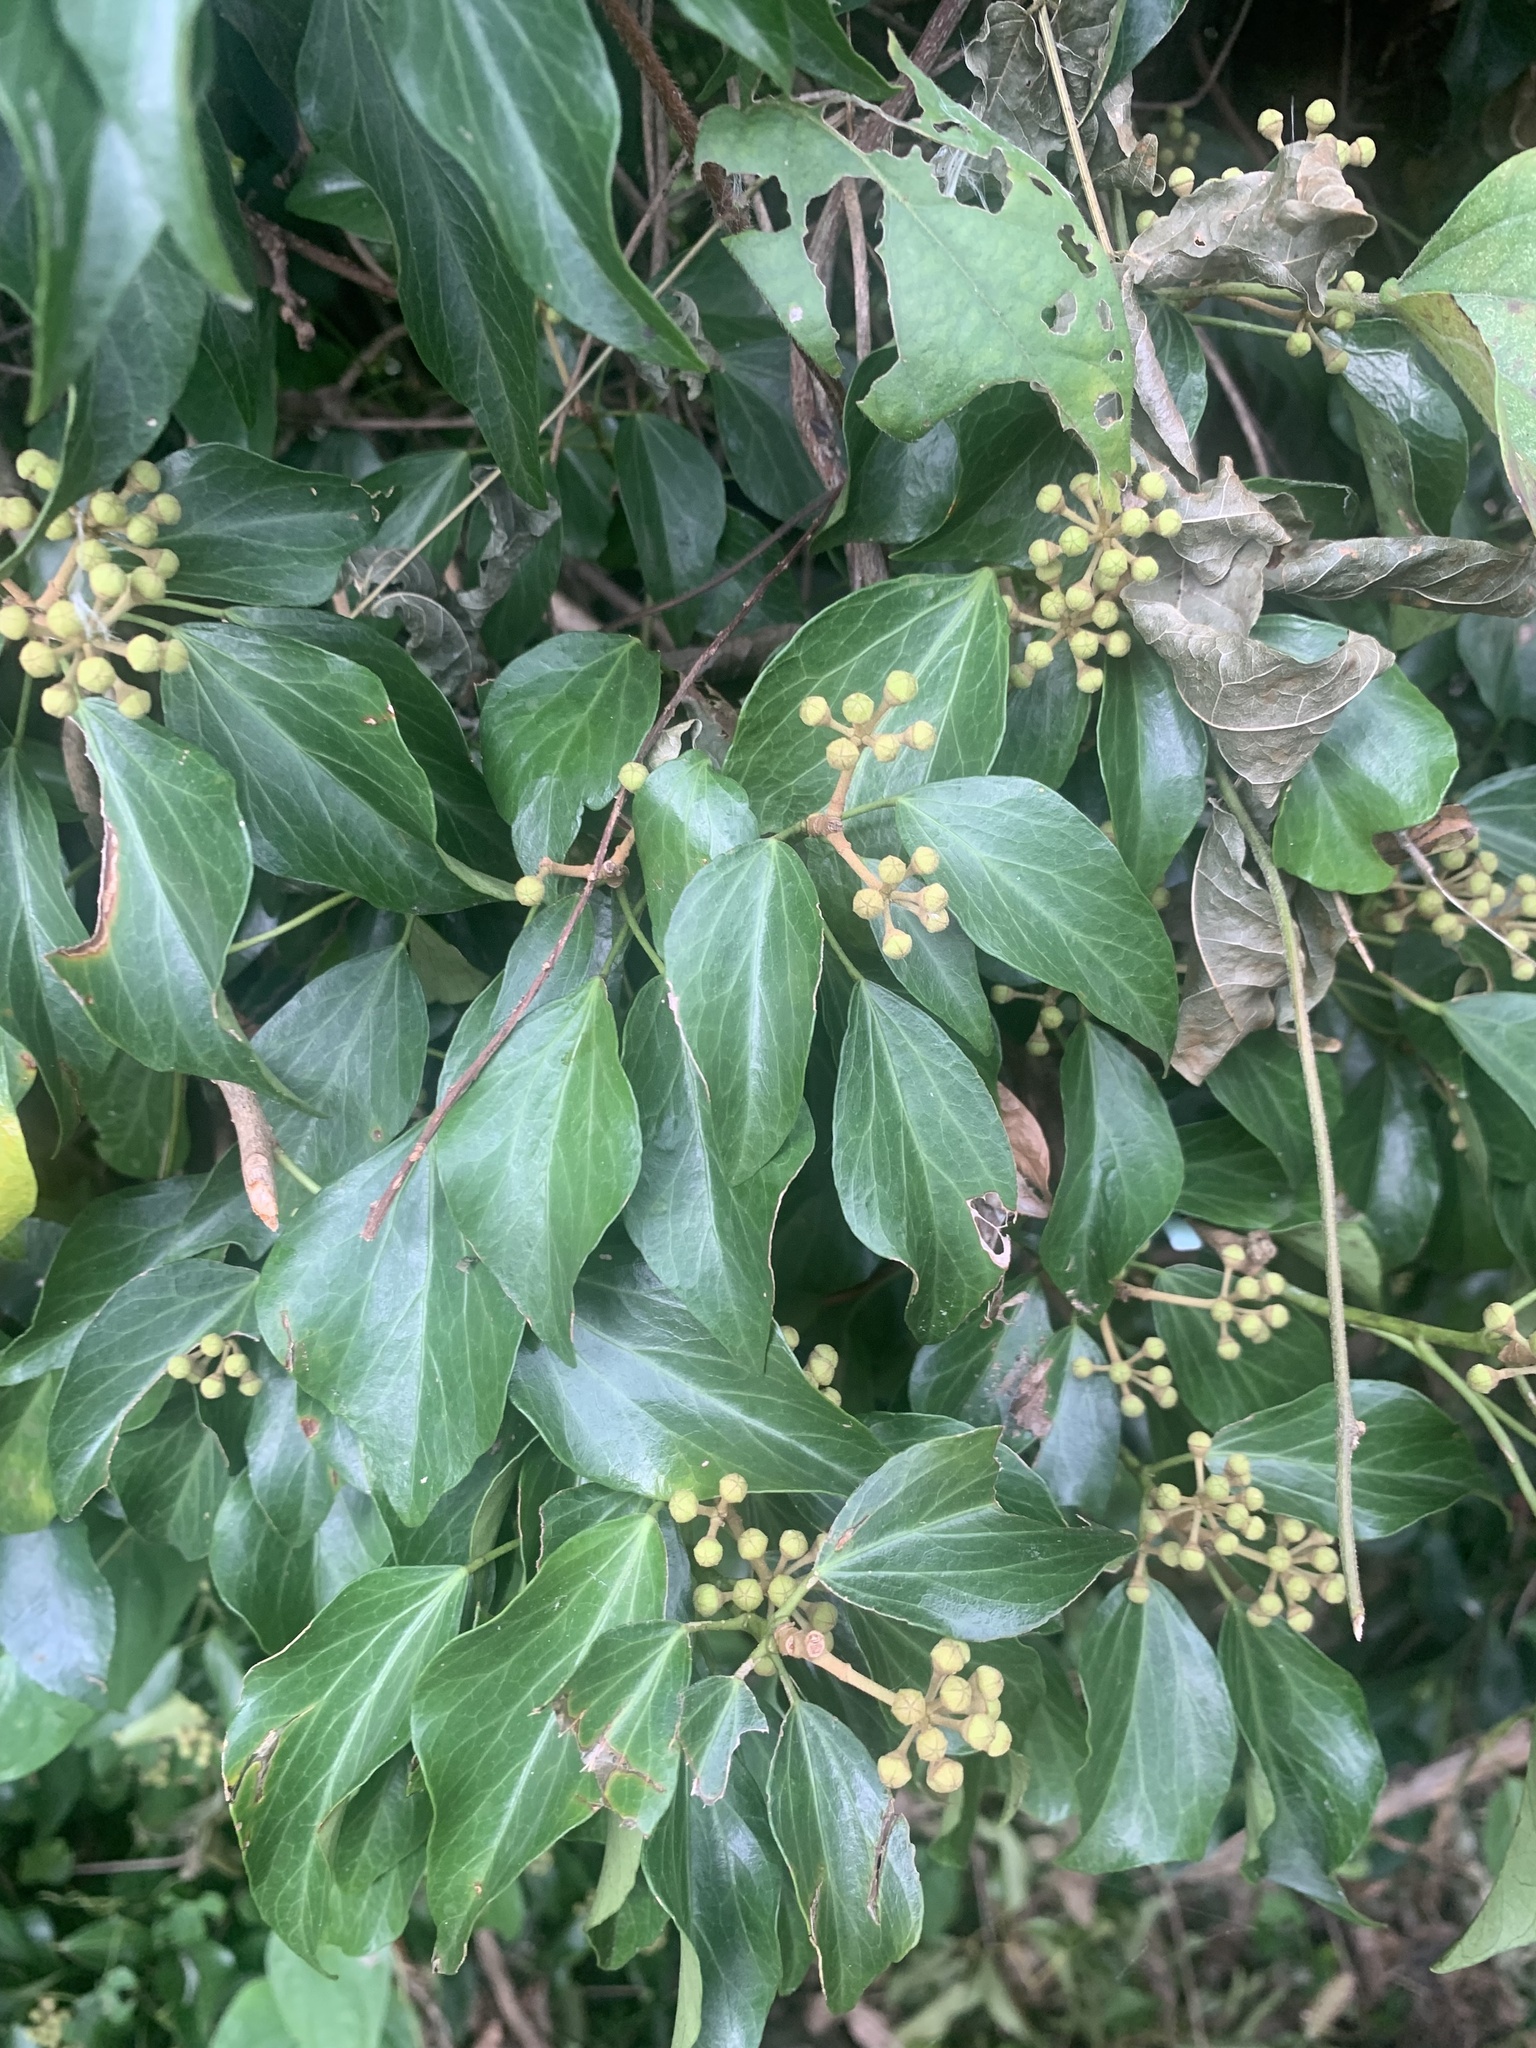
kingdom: Plantae
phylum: Tracheophyta
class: Magnoliopsida
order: Apiales
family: Araliaceae
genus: Hedera
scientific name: Hedera rhombea
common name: Japanese ivy
